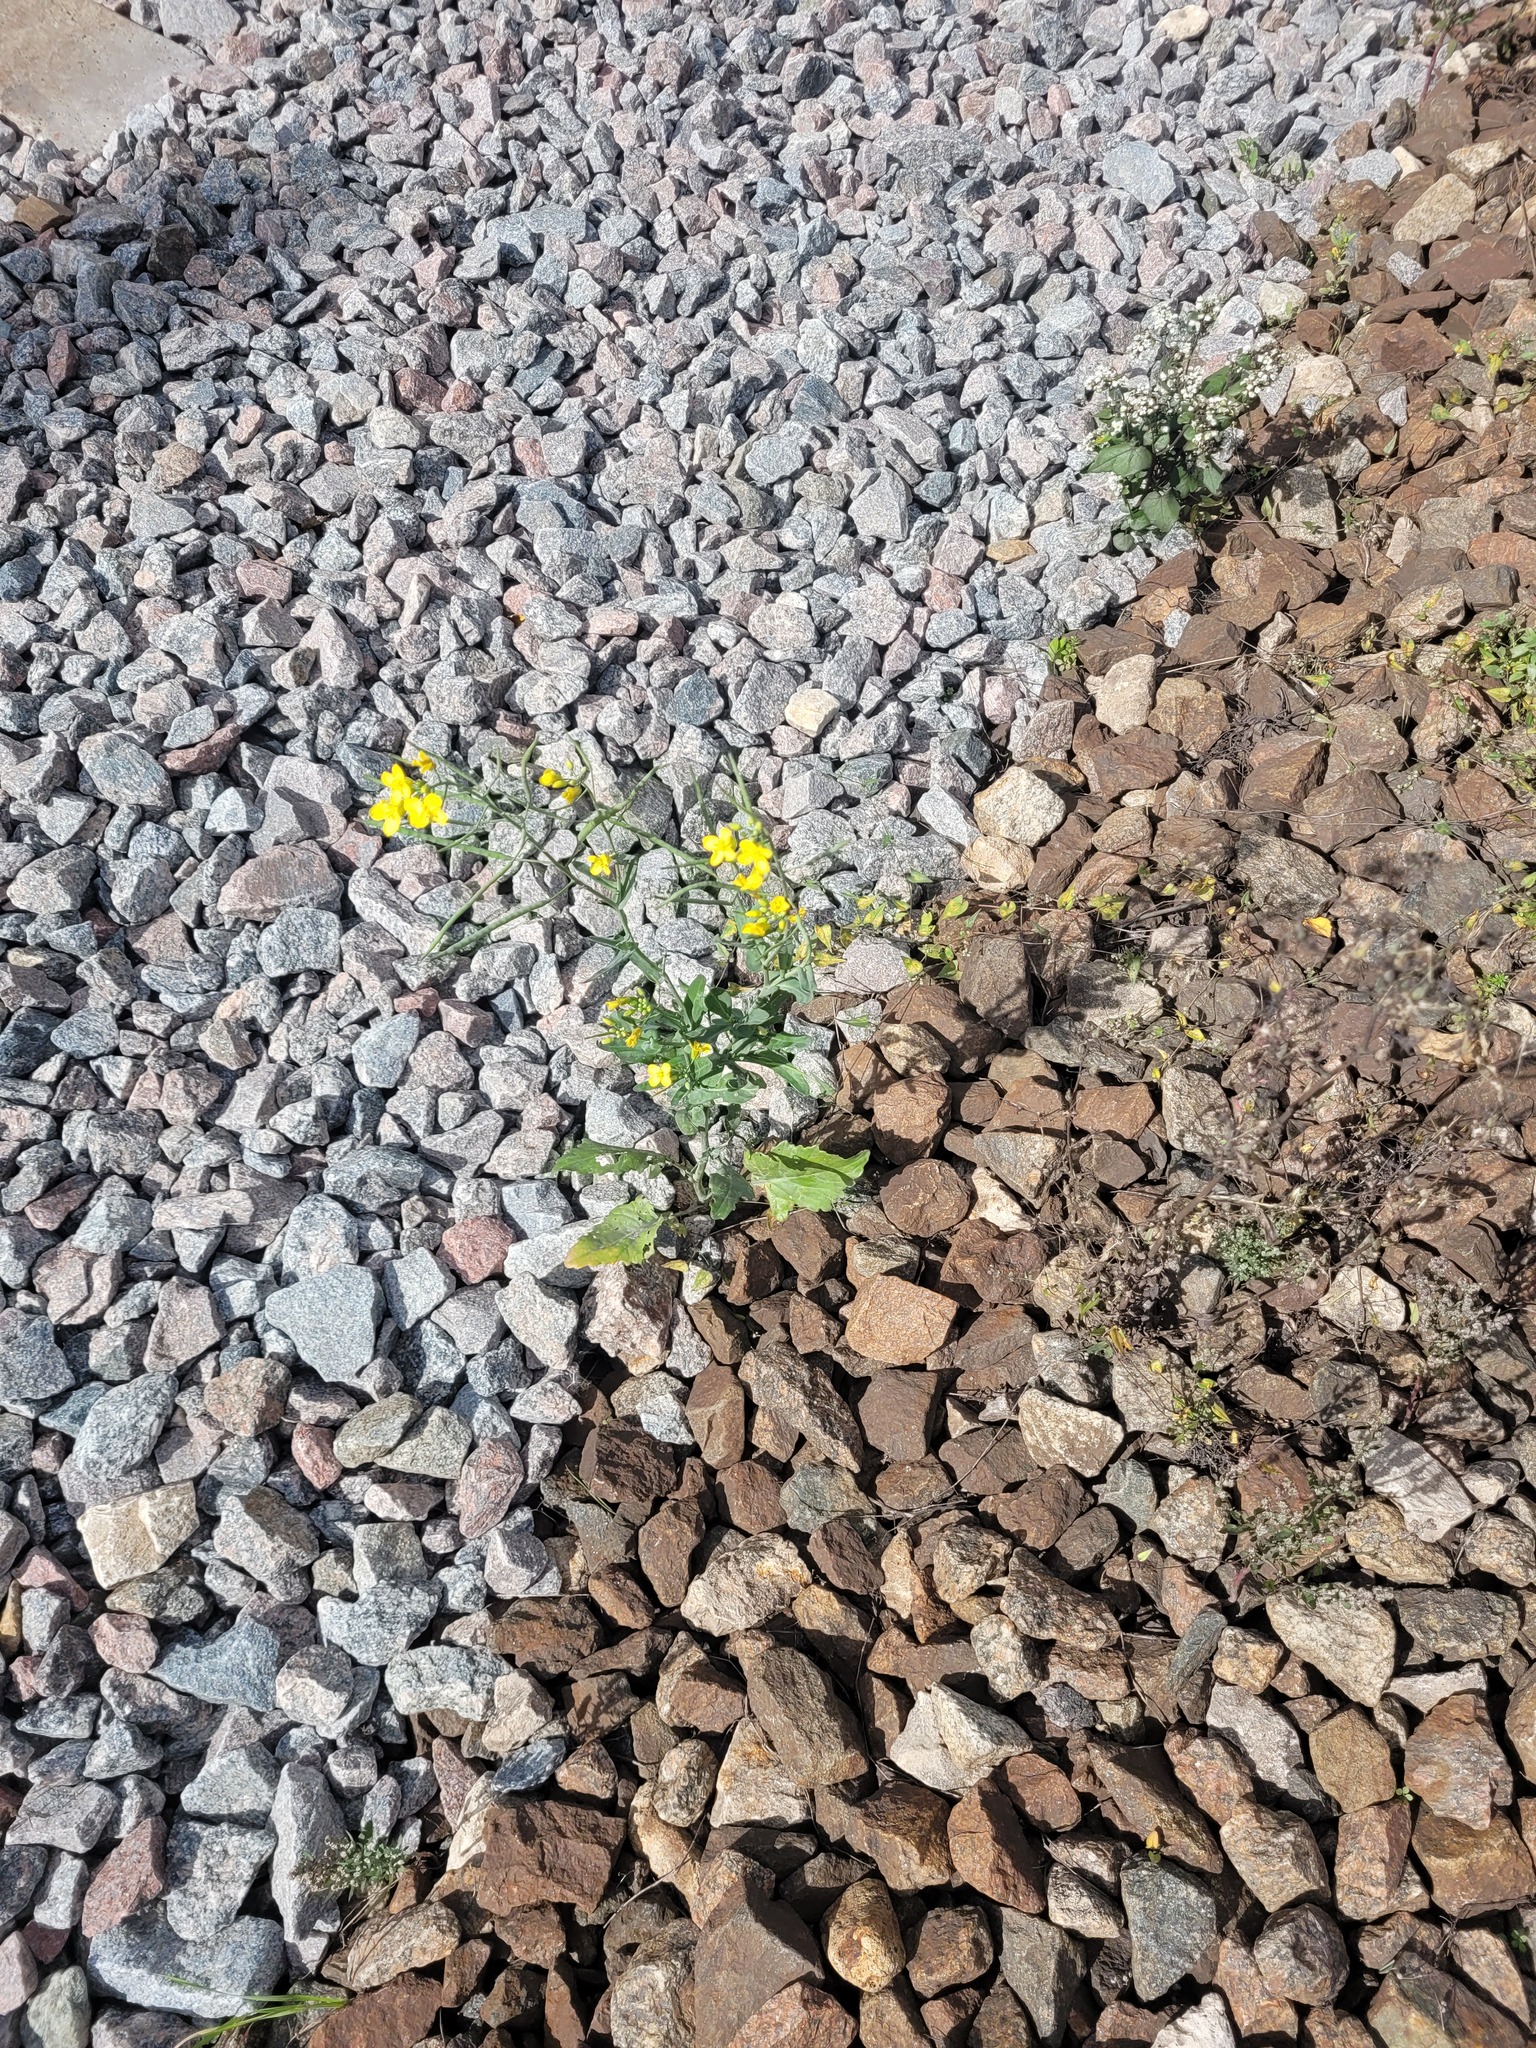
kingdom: Plantae
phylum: Tracheophyta
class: Magnoliopsida
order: Brassicales
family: Brassicaceae
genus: Brassica
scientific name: Brassica napus
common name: Rape
